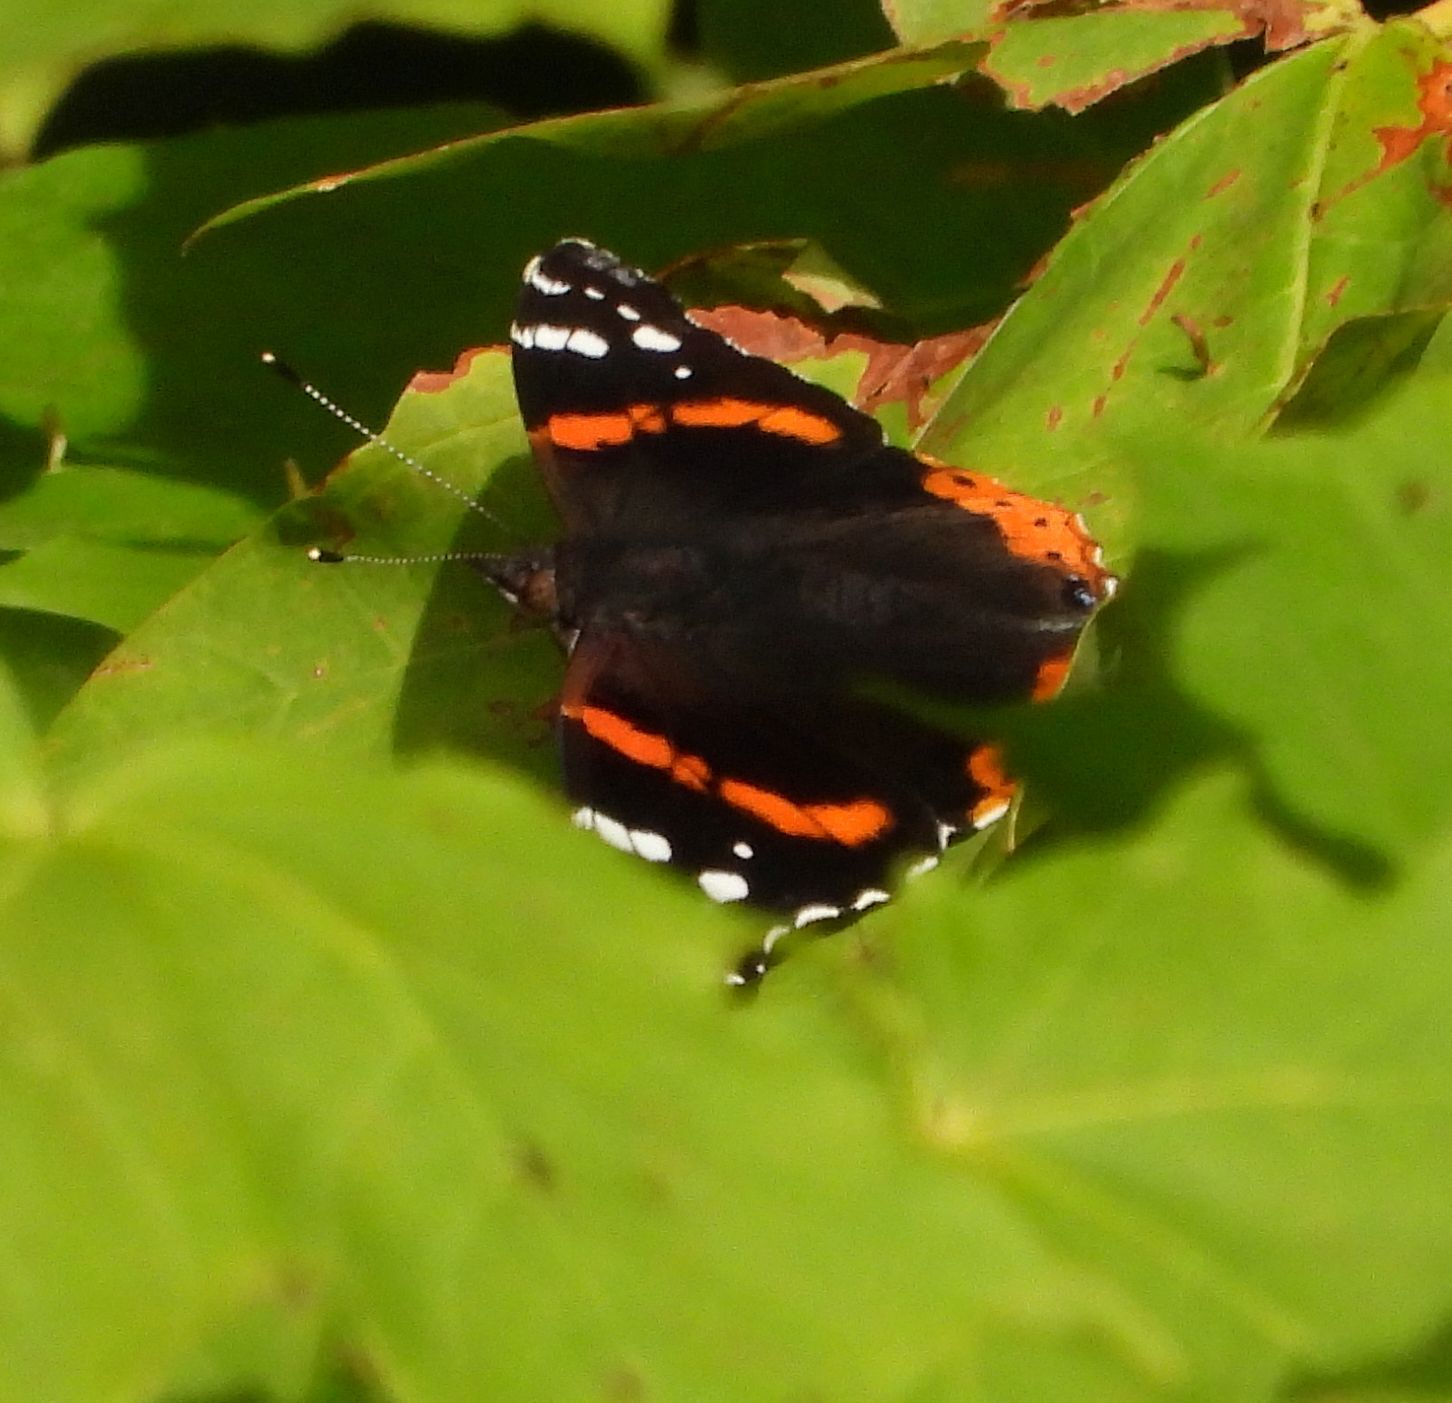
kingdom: Animalia
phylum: Arthropoda
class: Insecta
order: Lepidoptera
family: Nymphalidae
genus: Vanessa
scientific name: Vanessa atalanta
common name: Red admiral
